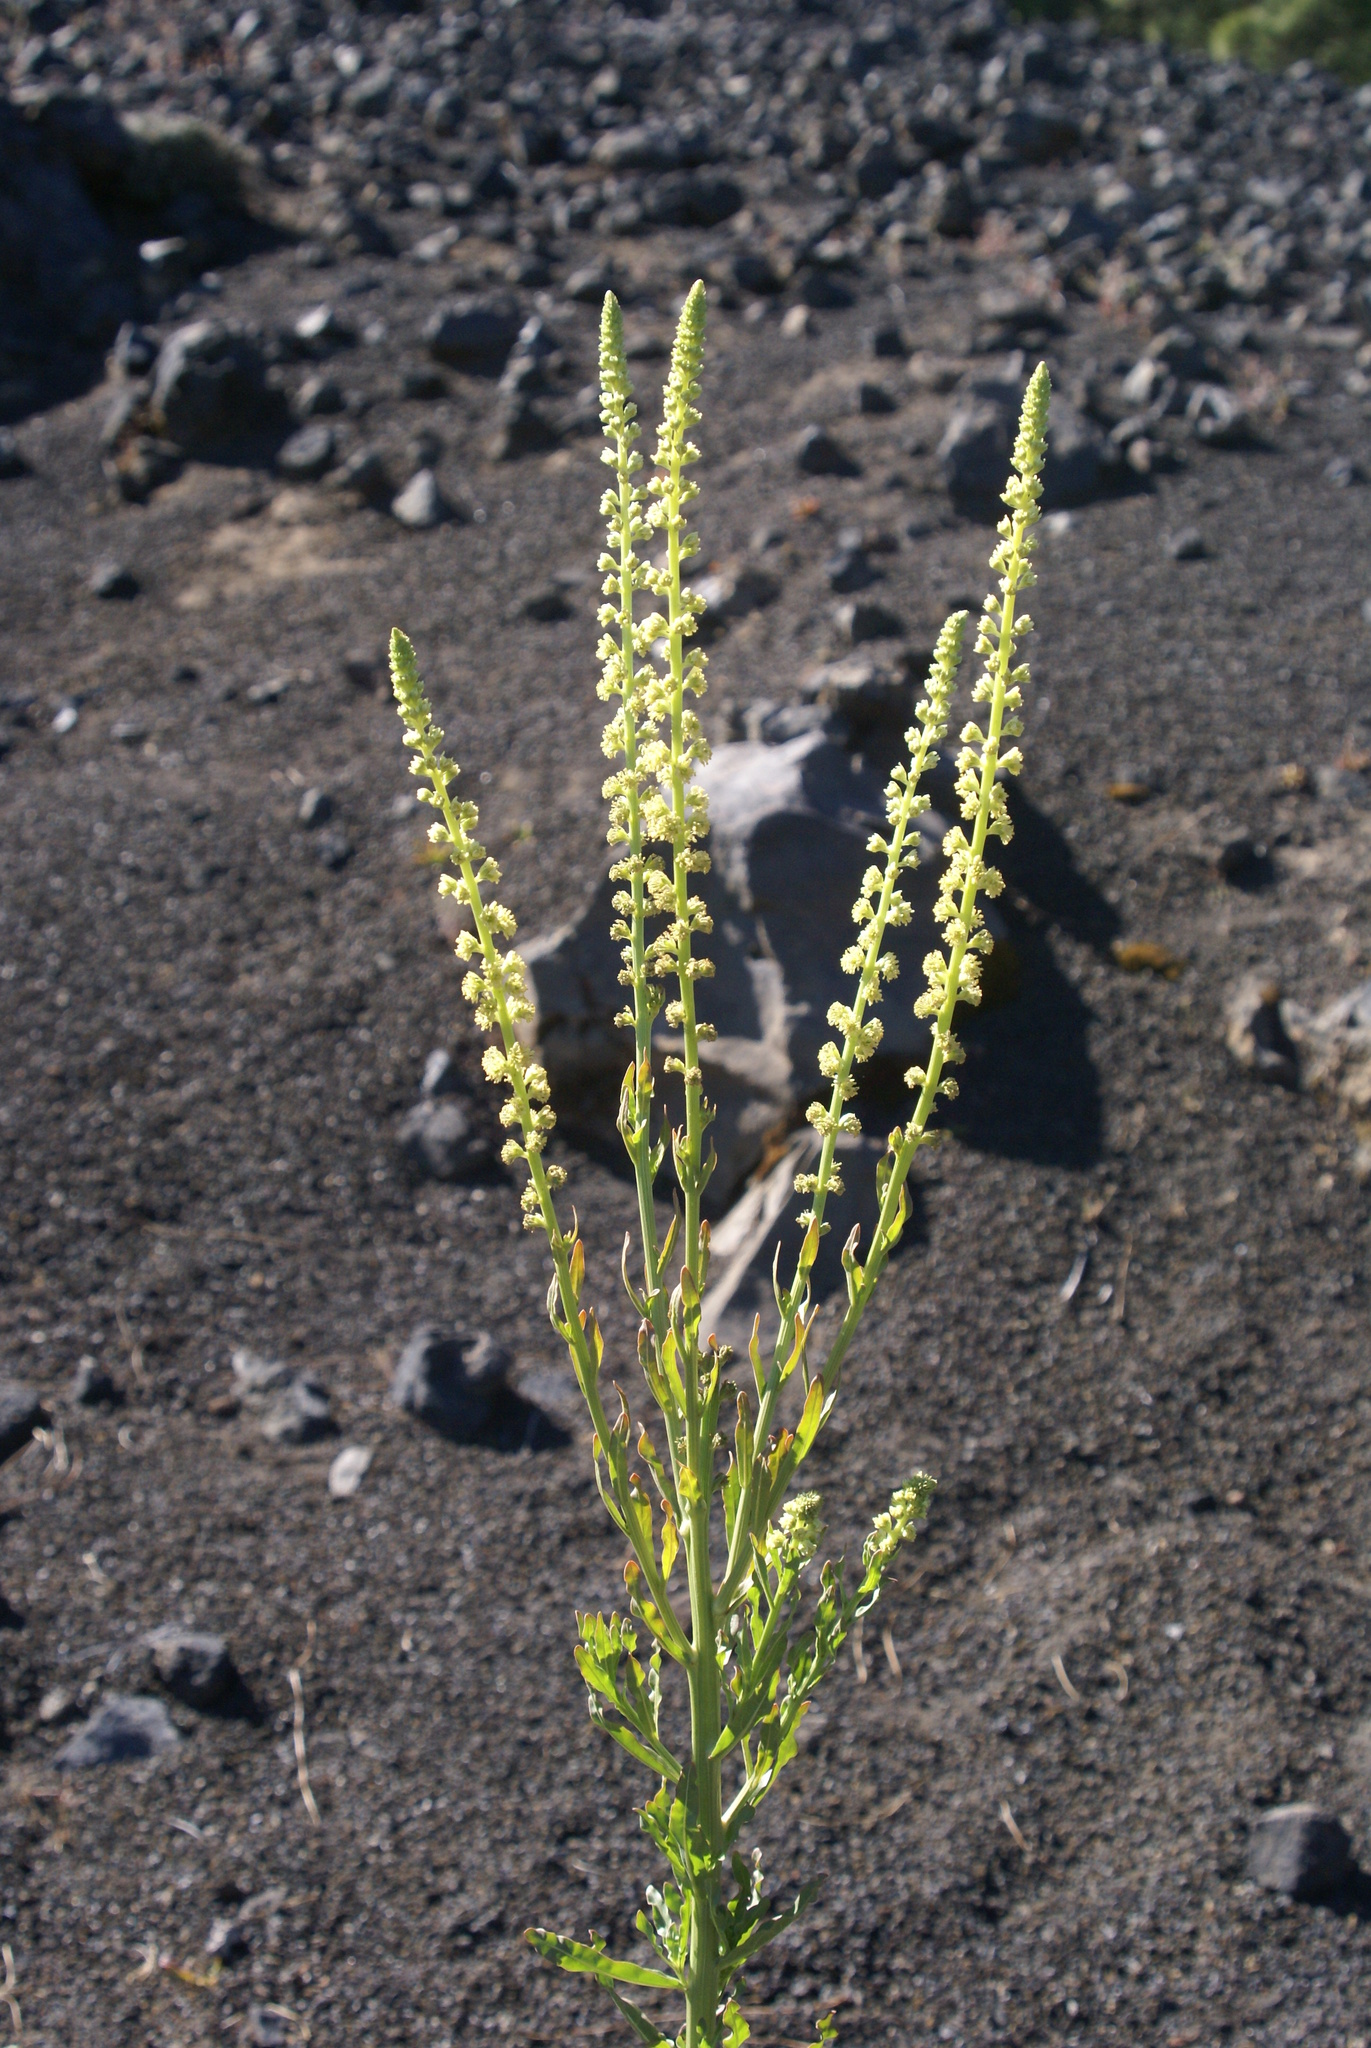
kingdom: Plantae
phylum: Tracheophyta
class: Magnoliopsida
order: Brassicales
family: Resedaceae
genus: Reseda
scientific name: Reseda luteola
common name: Weld
